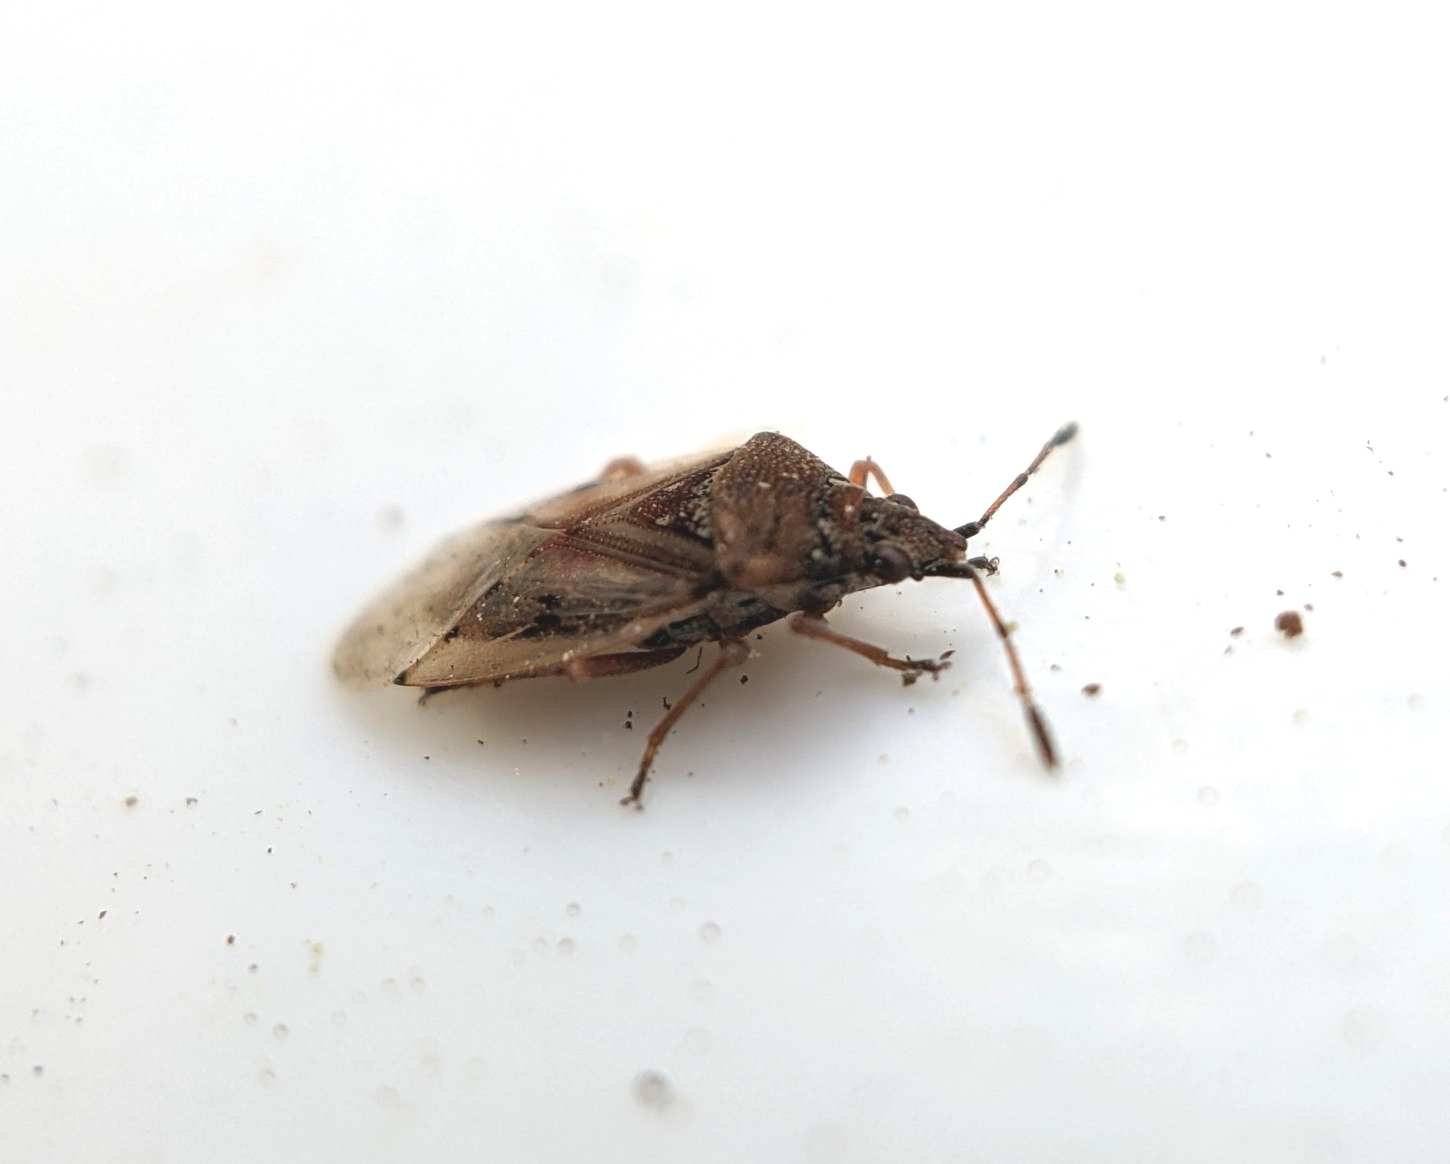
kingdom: Animalia
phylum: Arthropoda
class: Insecta
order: Hemiptera
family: Lygaeidae
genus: Kleidocerys
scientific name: Kleidocerys resedae
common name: Birch catkin bug
